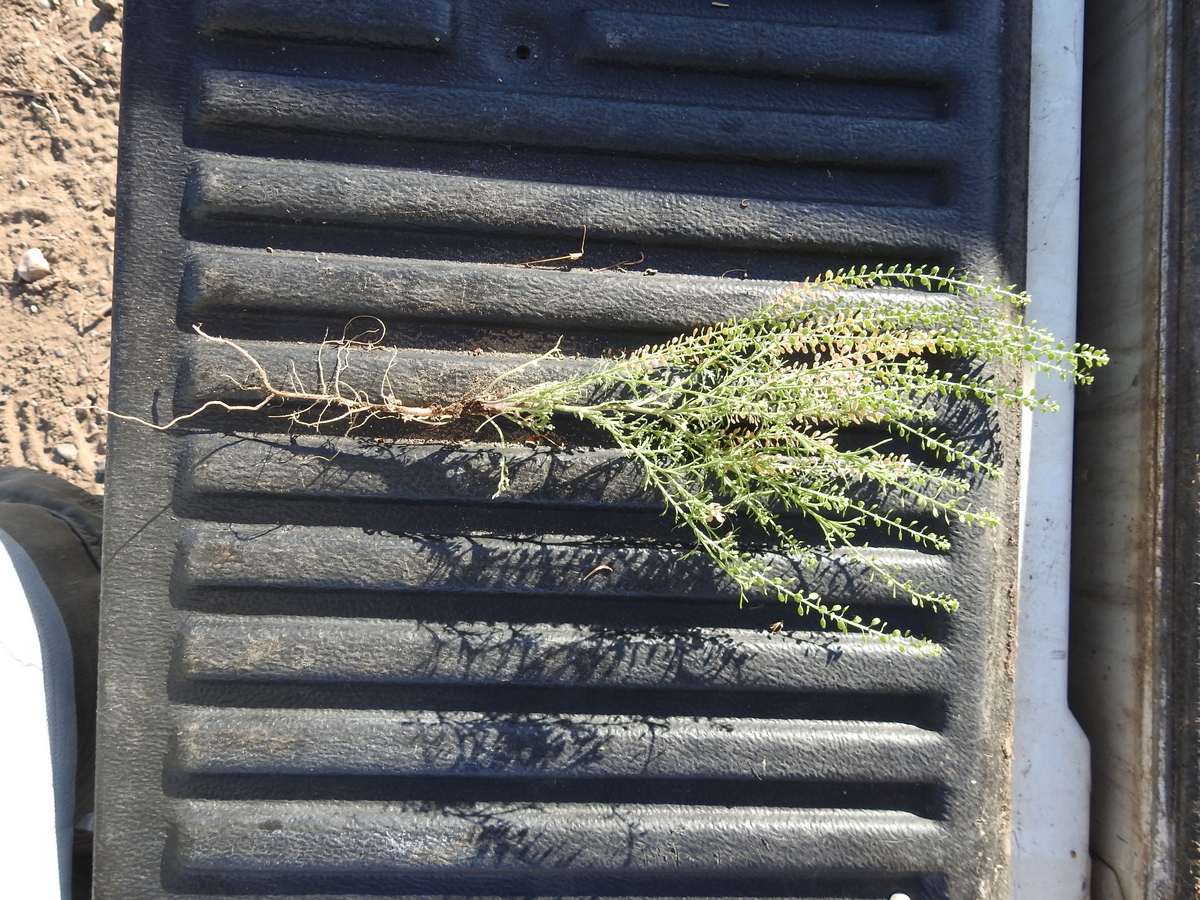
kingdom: Plantae
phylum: Tracheophyta
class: Magnoliopsida
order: Brassicales
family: Brassicaceae
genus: Lepidium
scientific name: Lepidium bonariense
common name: Argentine pepperwort
